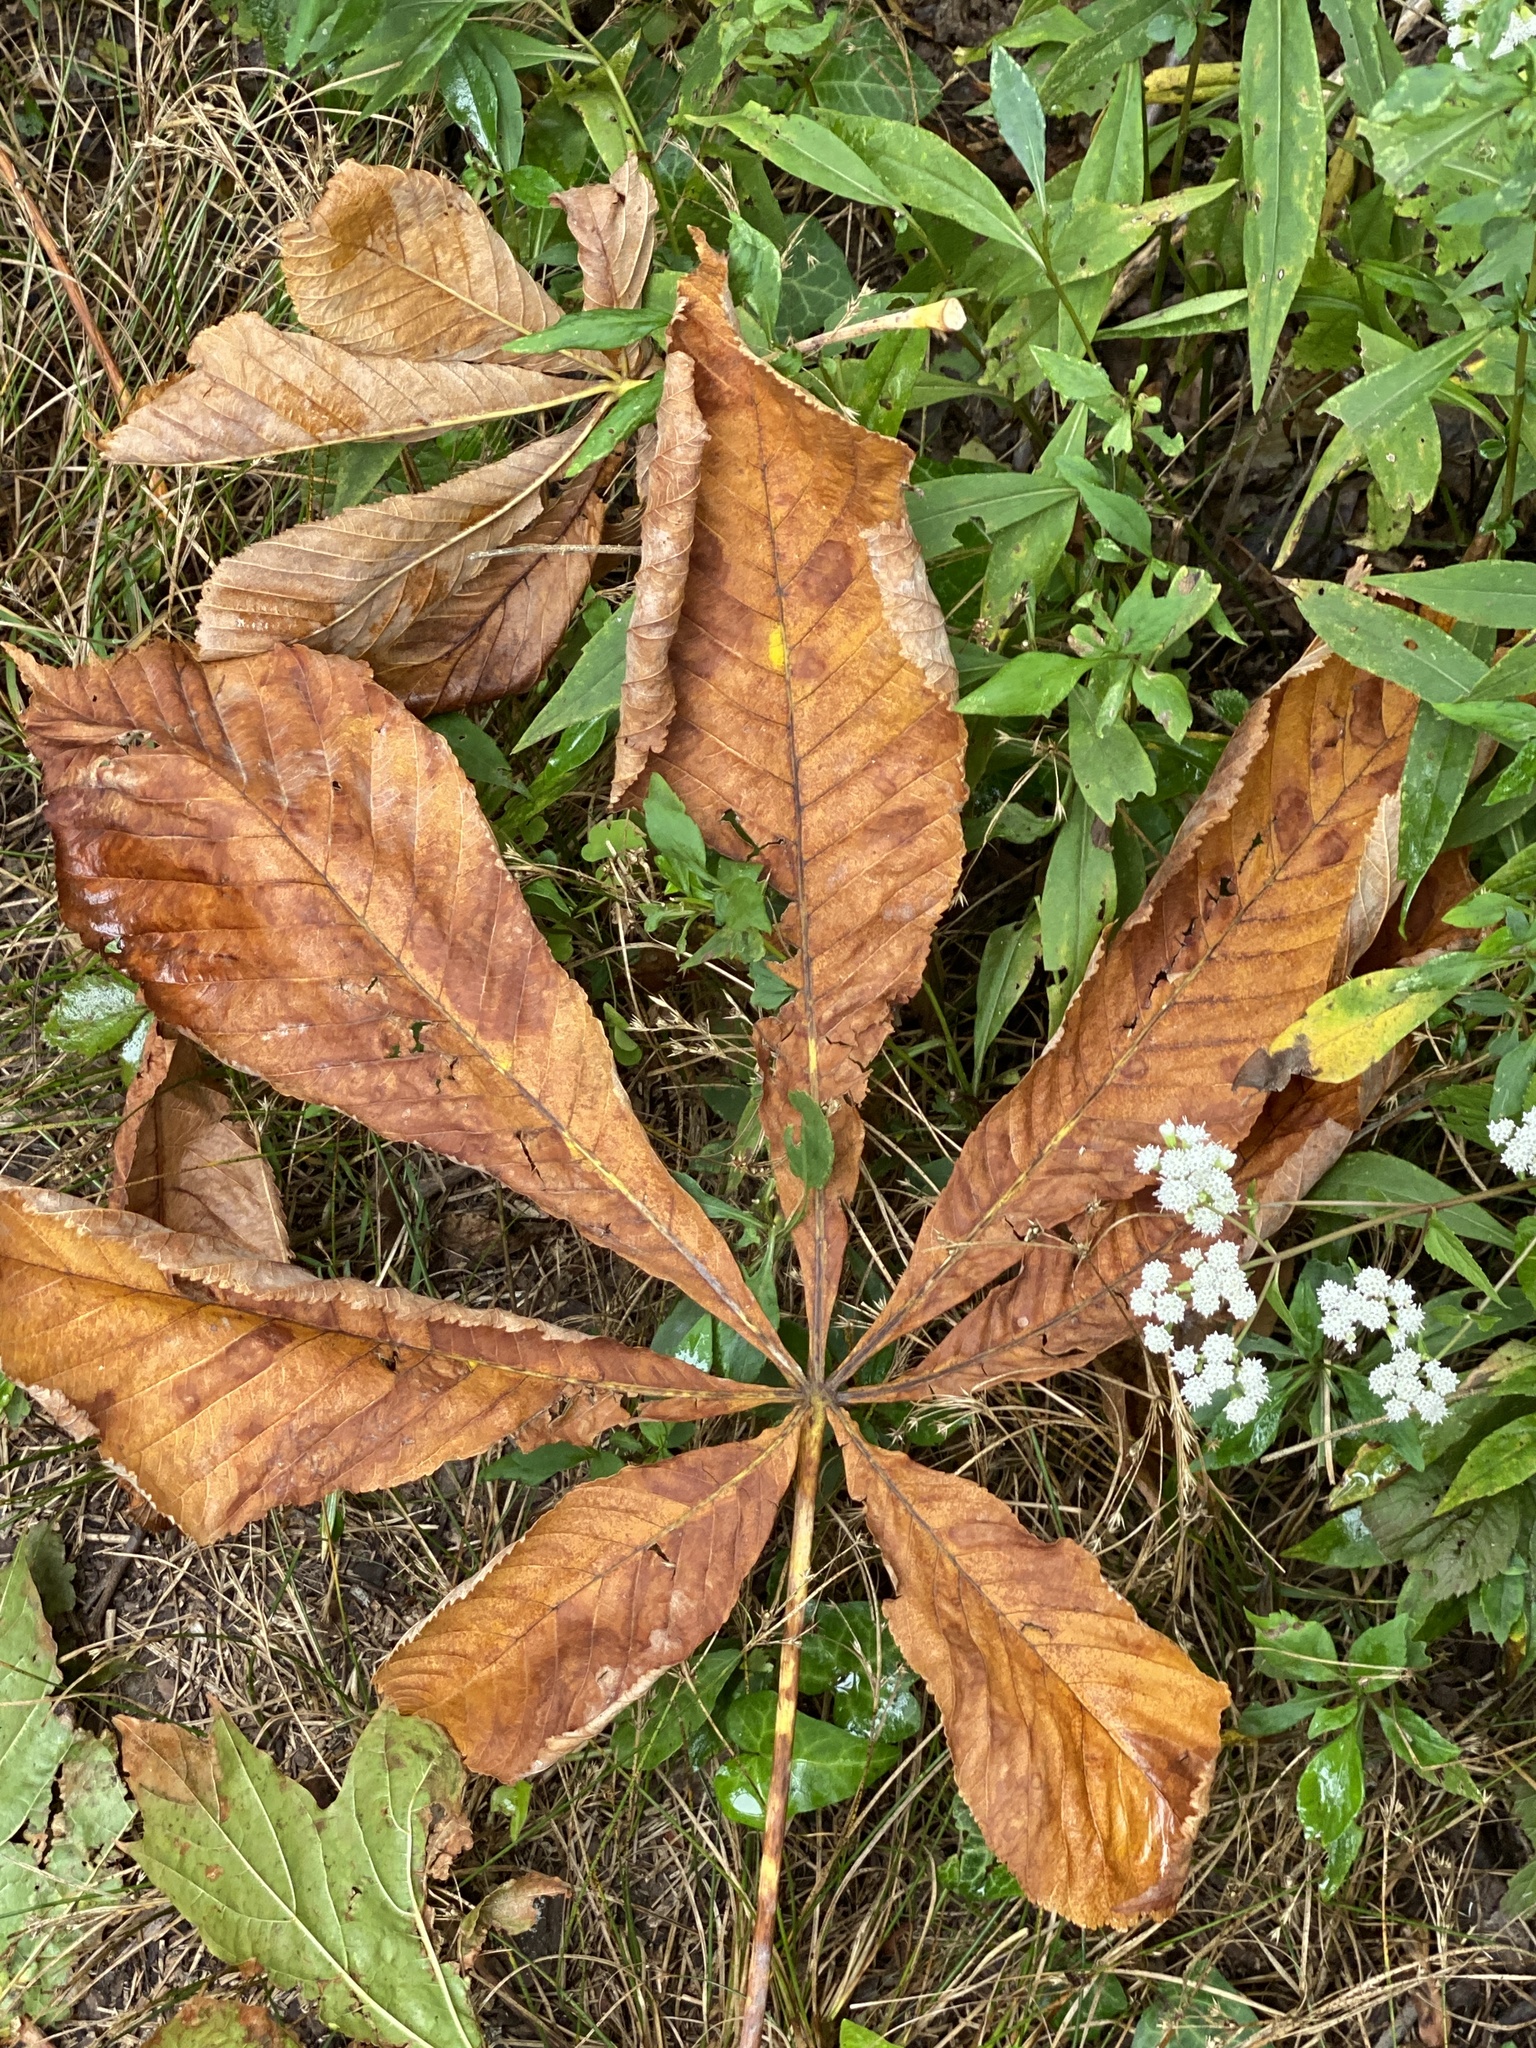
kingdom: Plantae
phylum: Tracheophyta
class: Magnoliopsida
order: Sapindales
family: Sapindaceae
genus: Aesculus
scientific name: Aesculus hippocastanum
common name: Horse-chestnut
